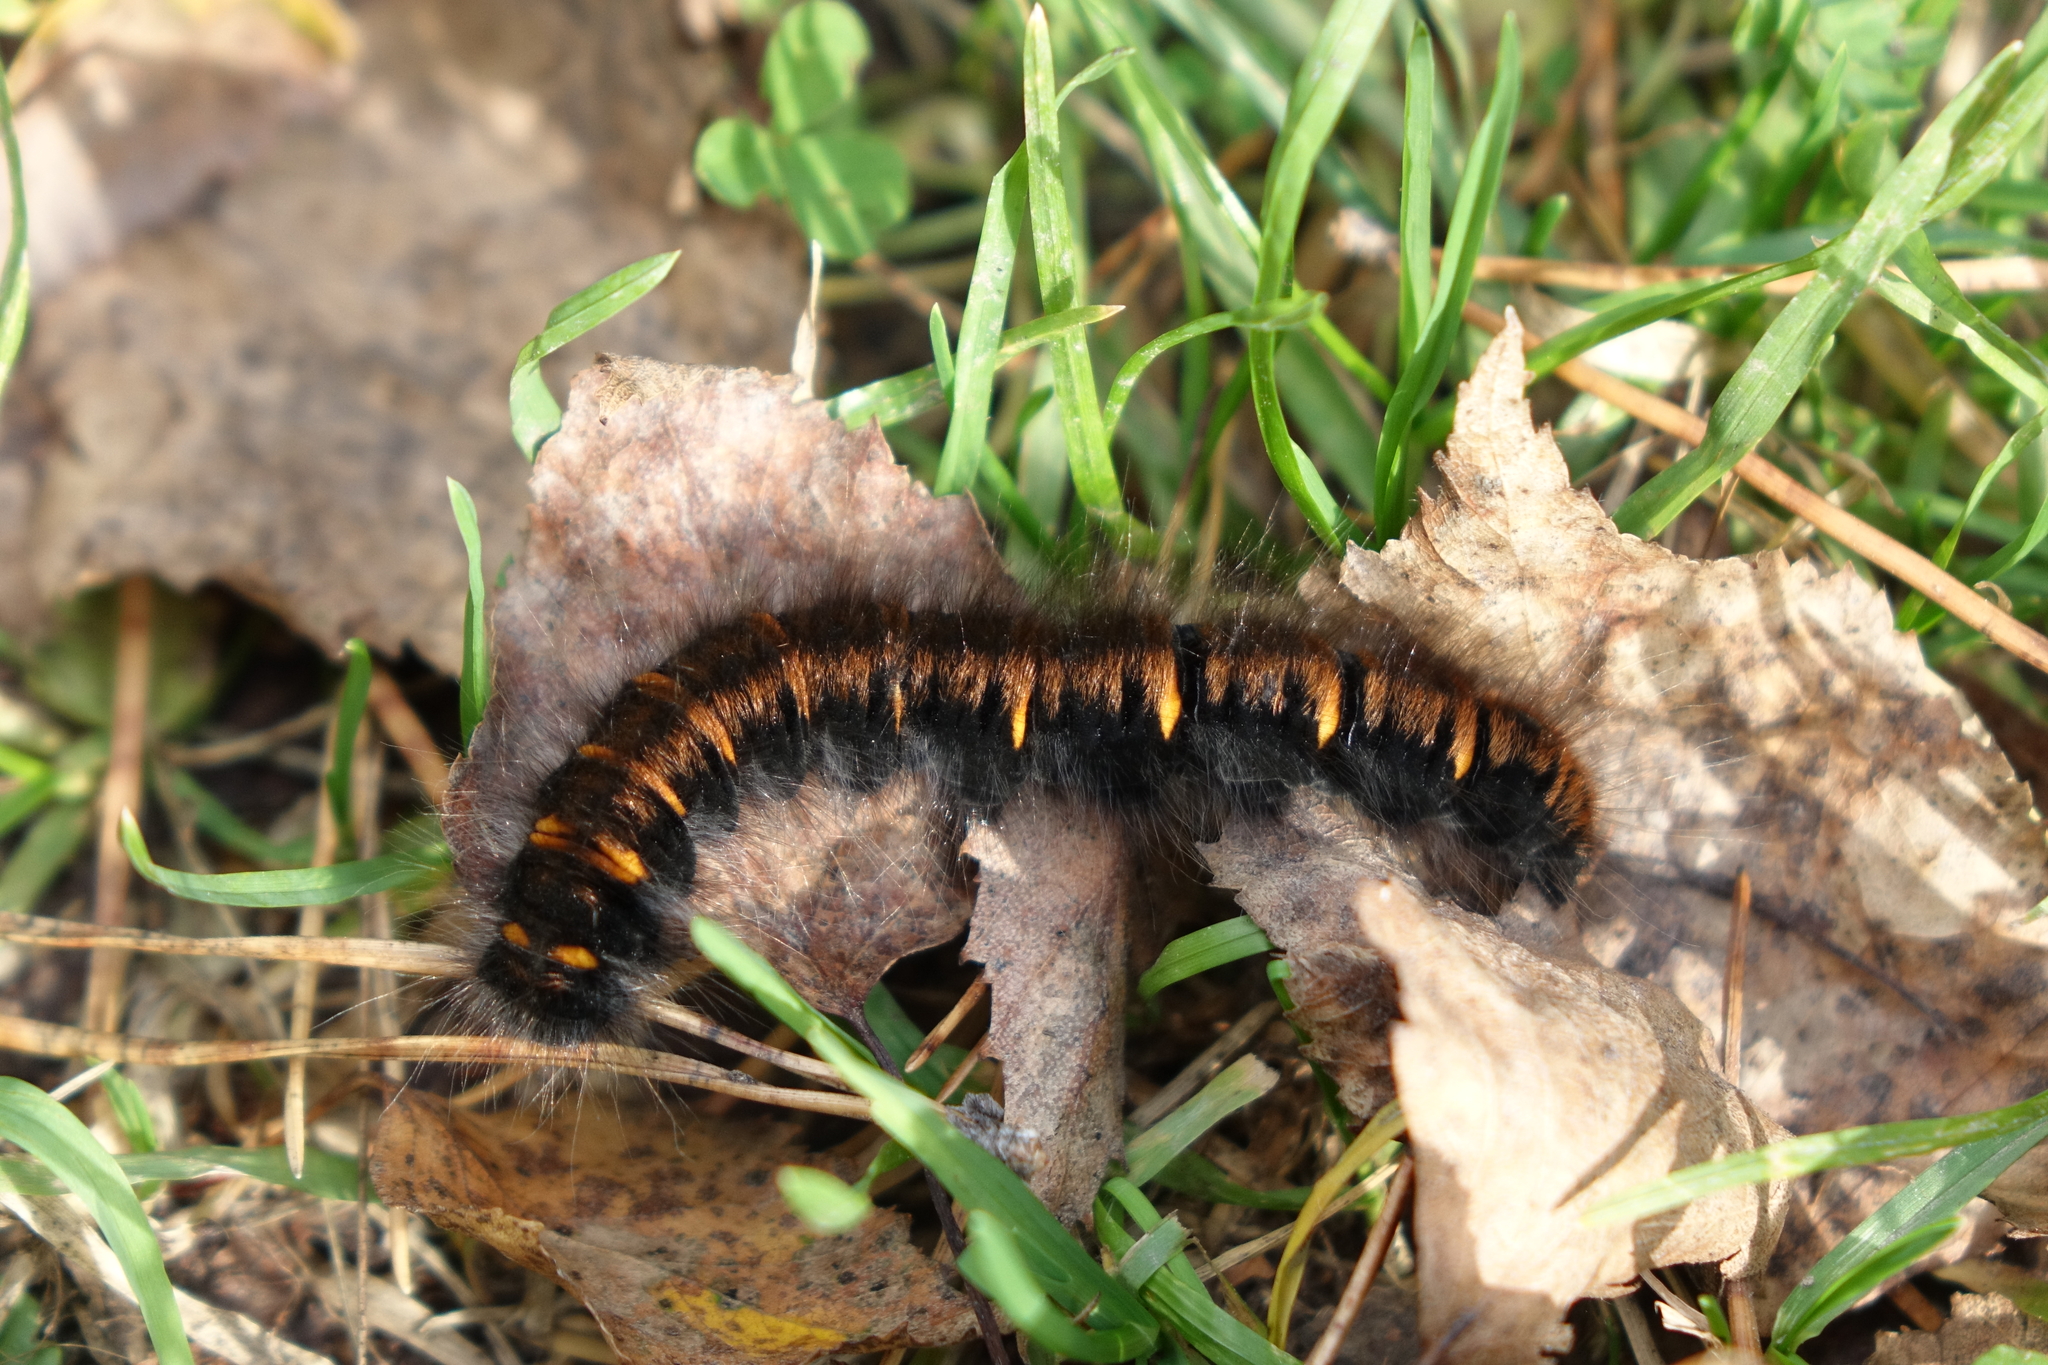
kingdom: Animalia
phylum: Arthropoda
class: Insecta
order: Lepidoptera
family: Lasiocampidae
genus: Macrothylacia
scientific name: Macrothylacia rubi
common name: Fox moth
